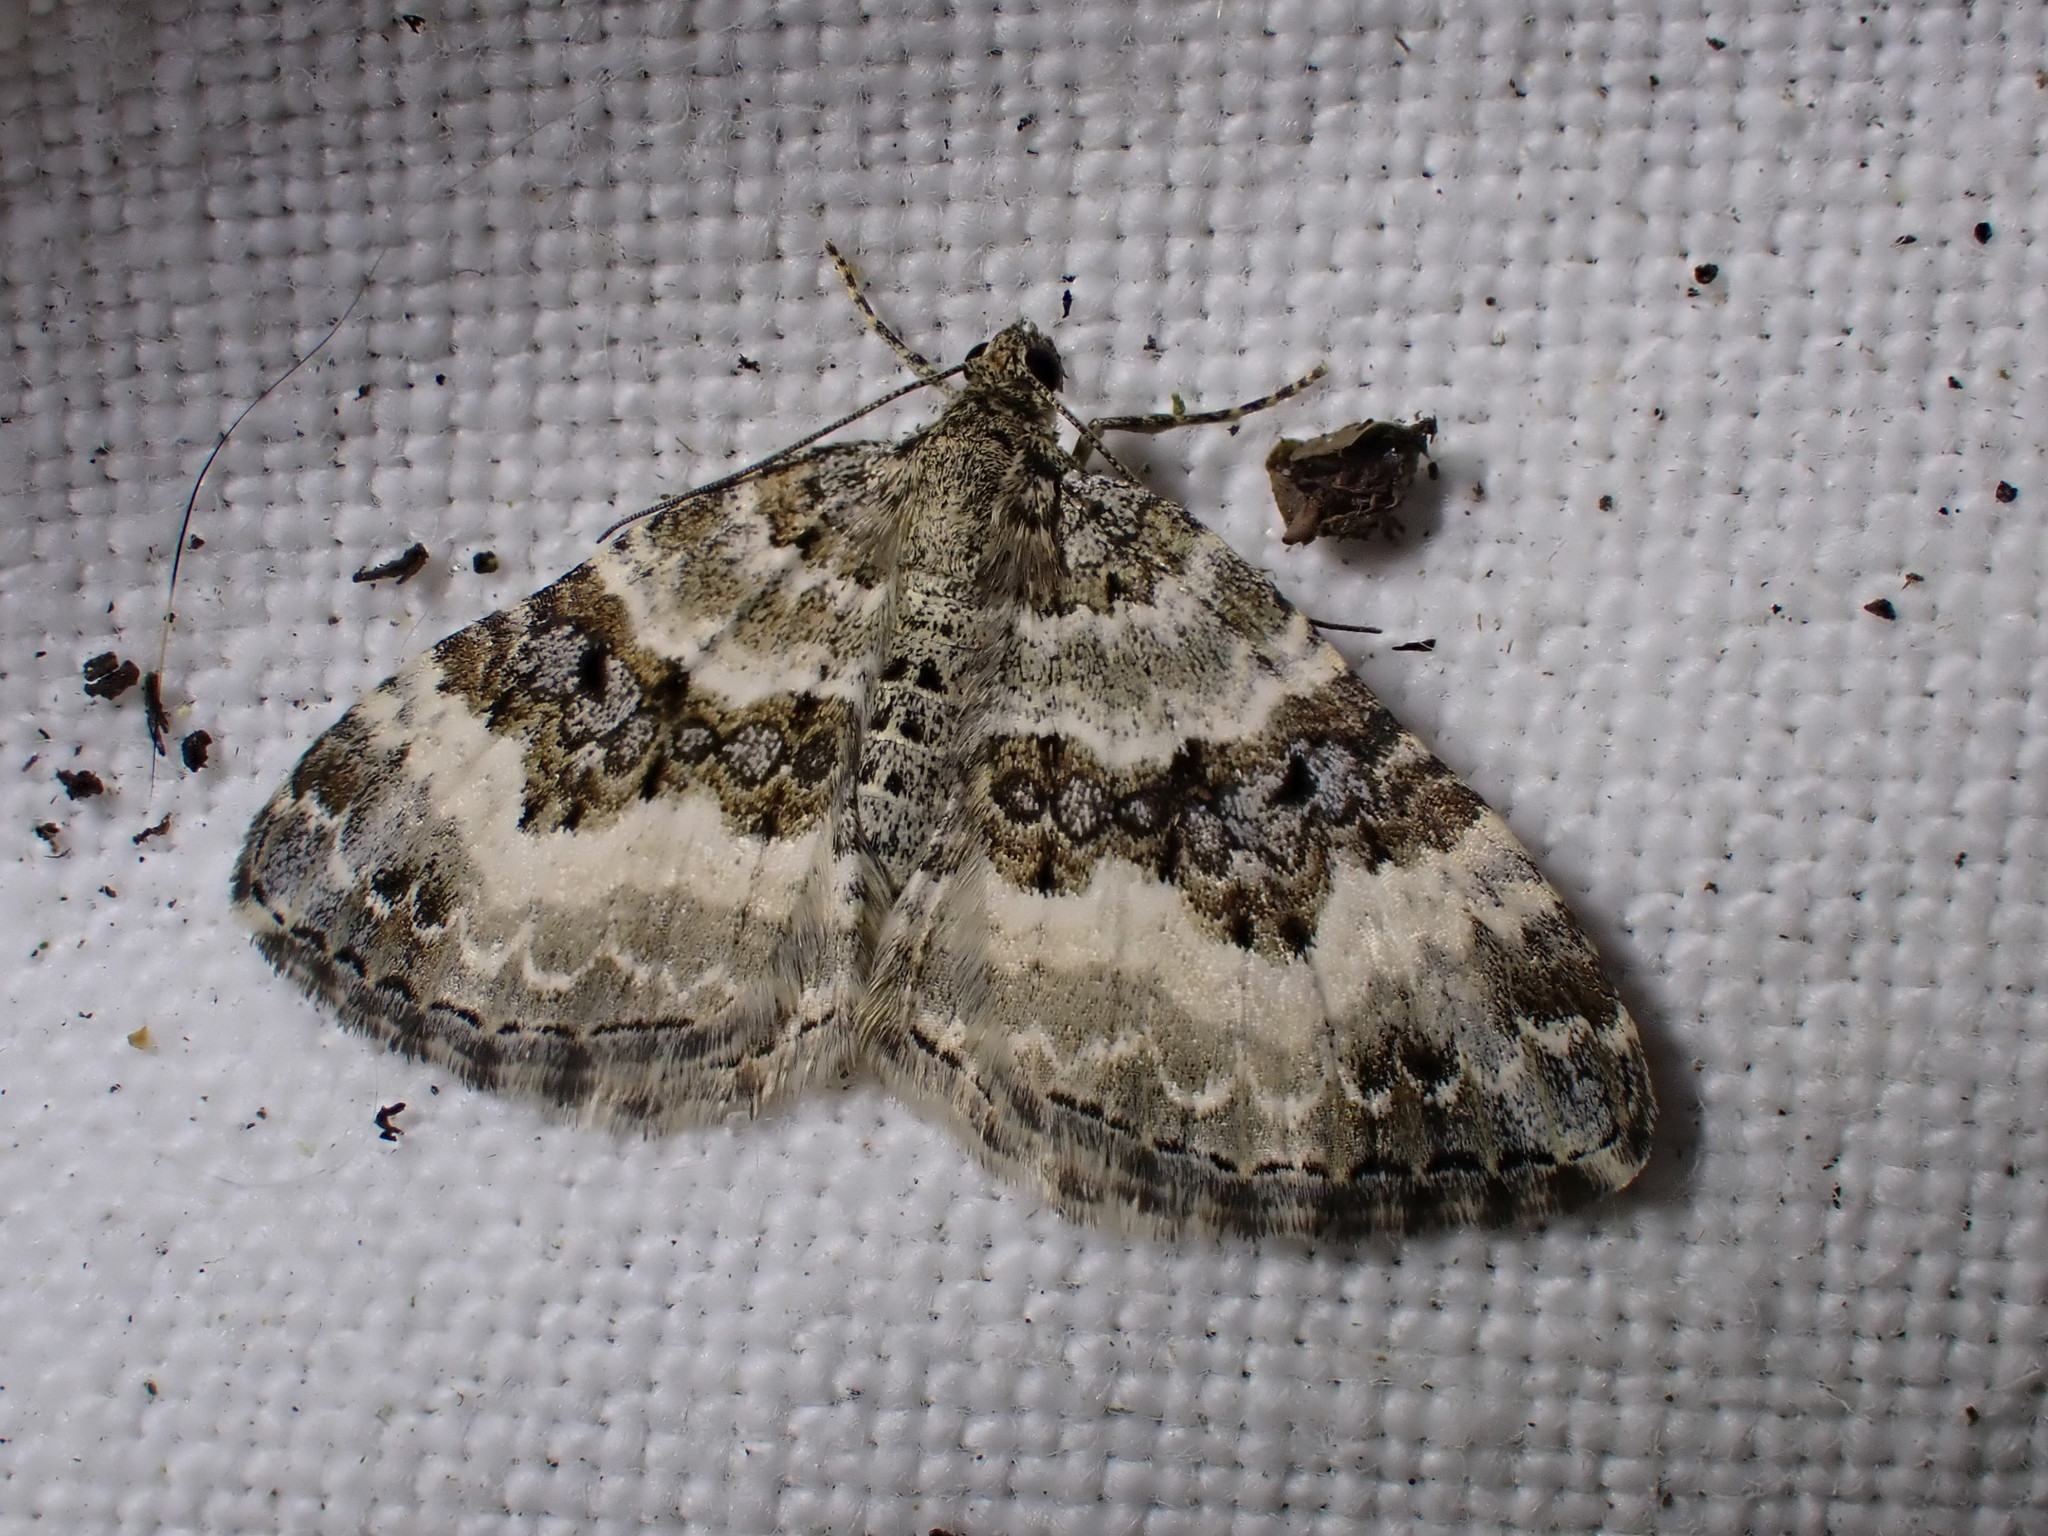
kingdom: Animalia
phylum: Arthropoda
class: Insecta
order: Lepidoptera
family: Geometridae
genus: Epirrhoe
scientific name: Epirrhoe alternata
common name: Common carpet
